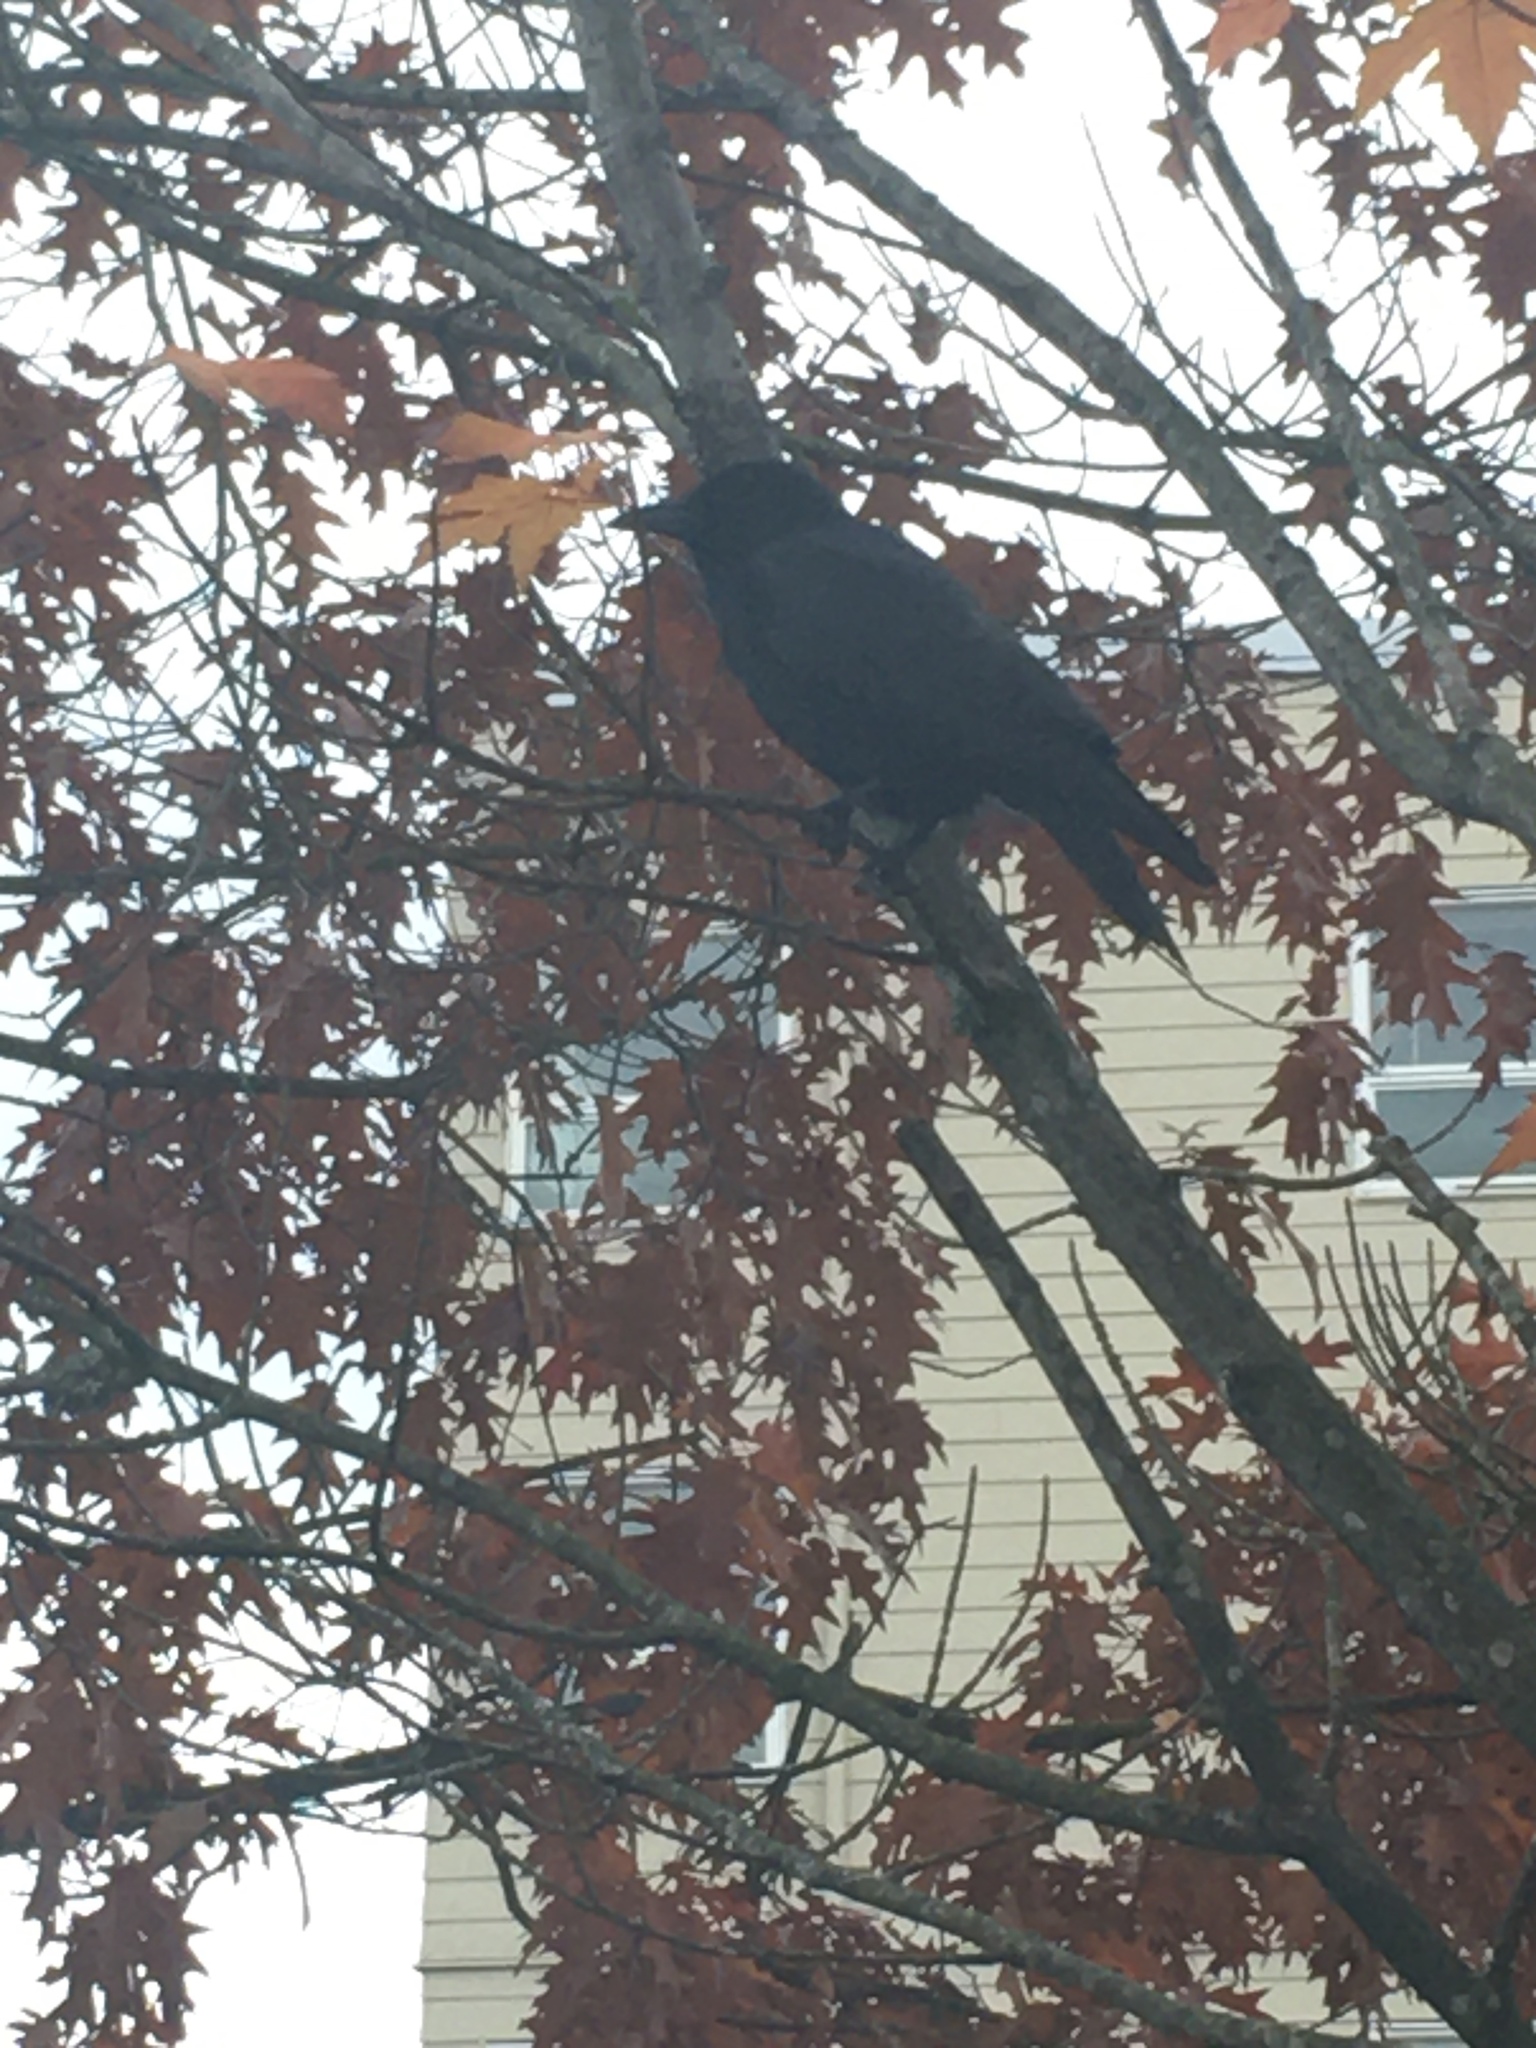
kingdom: Animalia
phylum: Chordata
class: Aves
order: Passeriformes
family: Corvidae
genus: Corvus
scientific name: Corvus brachyrhynchos
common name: American crow
